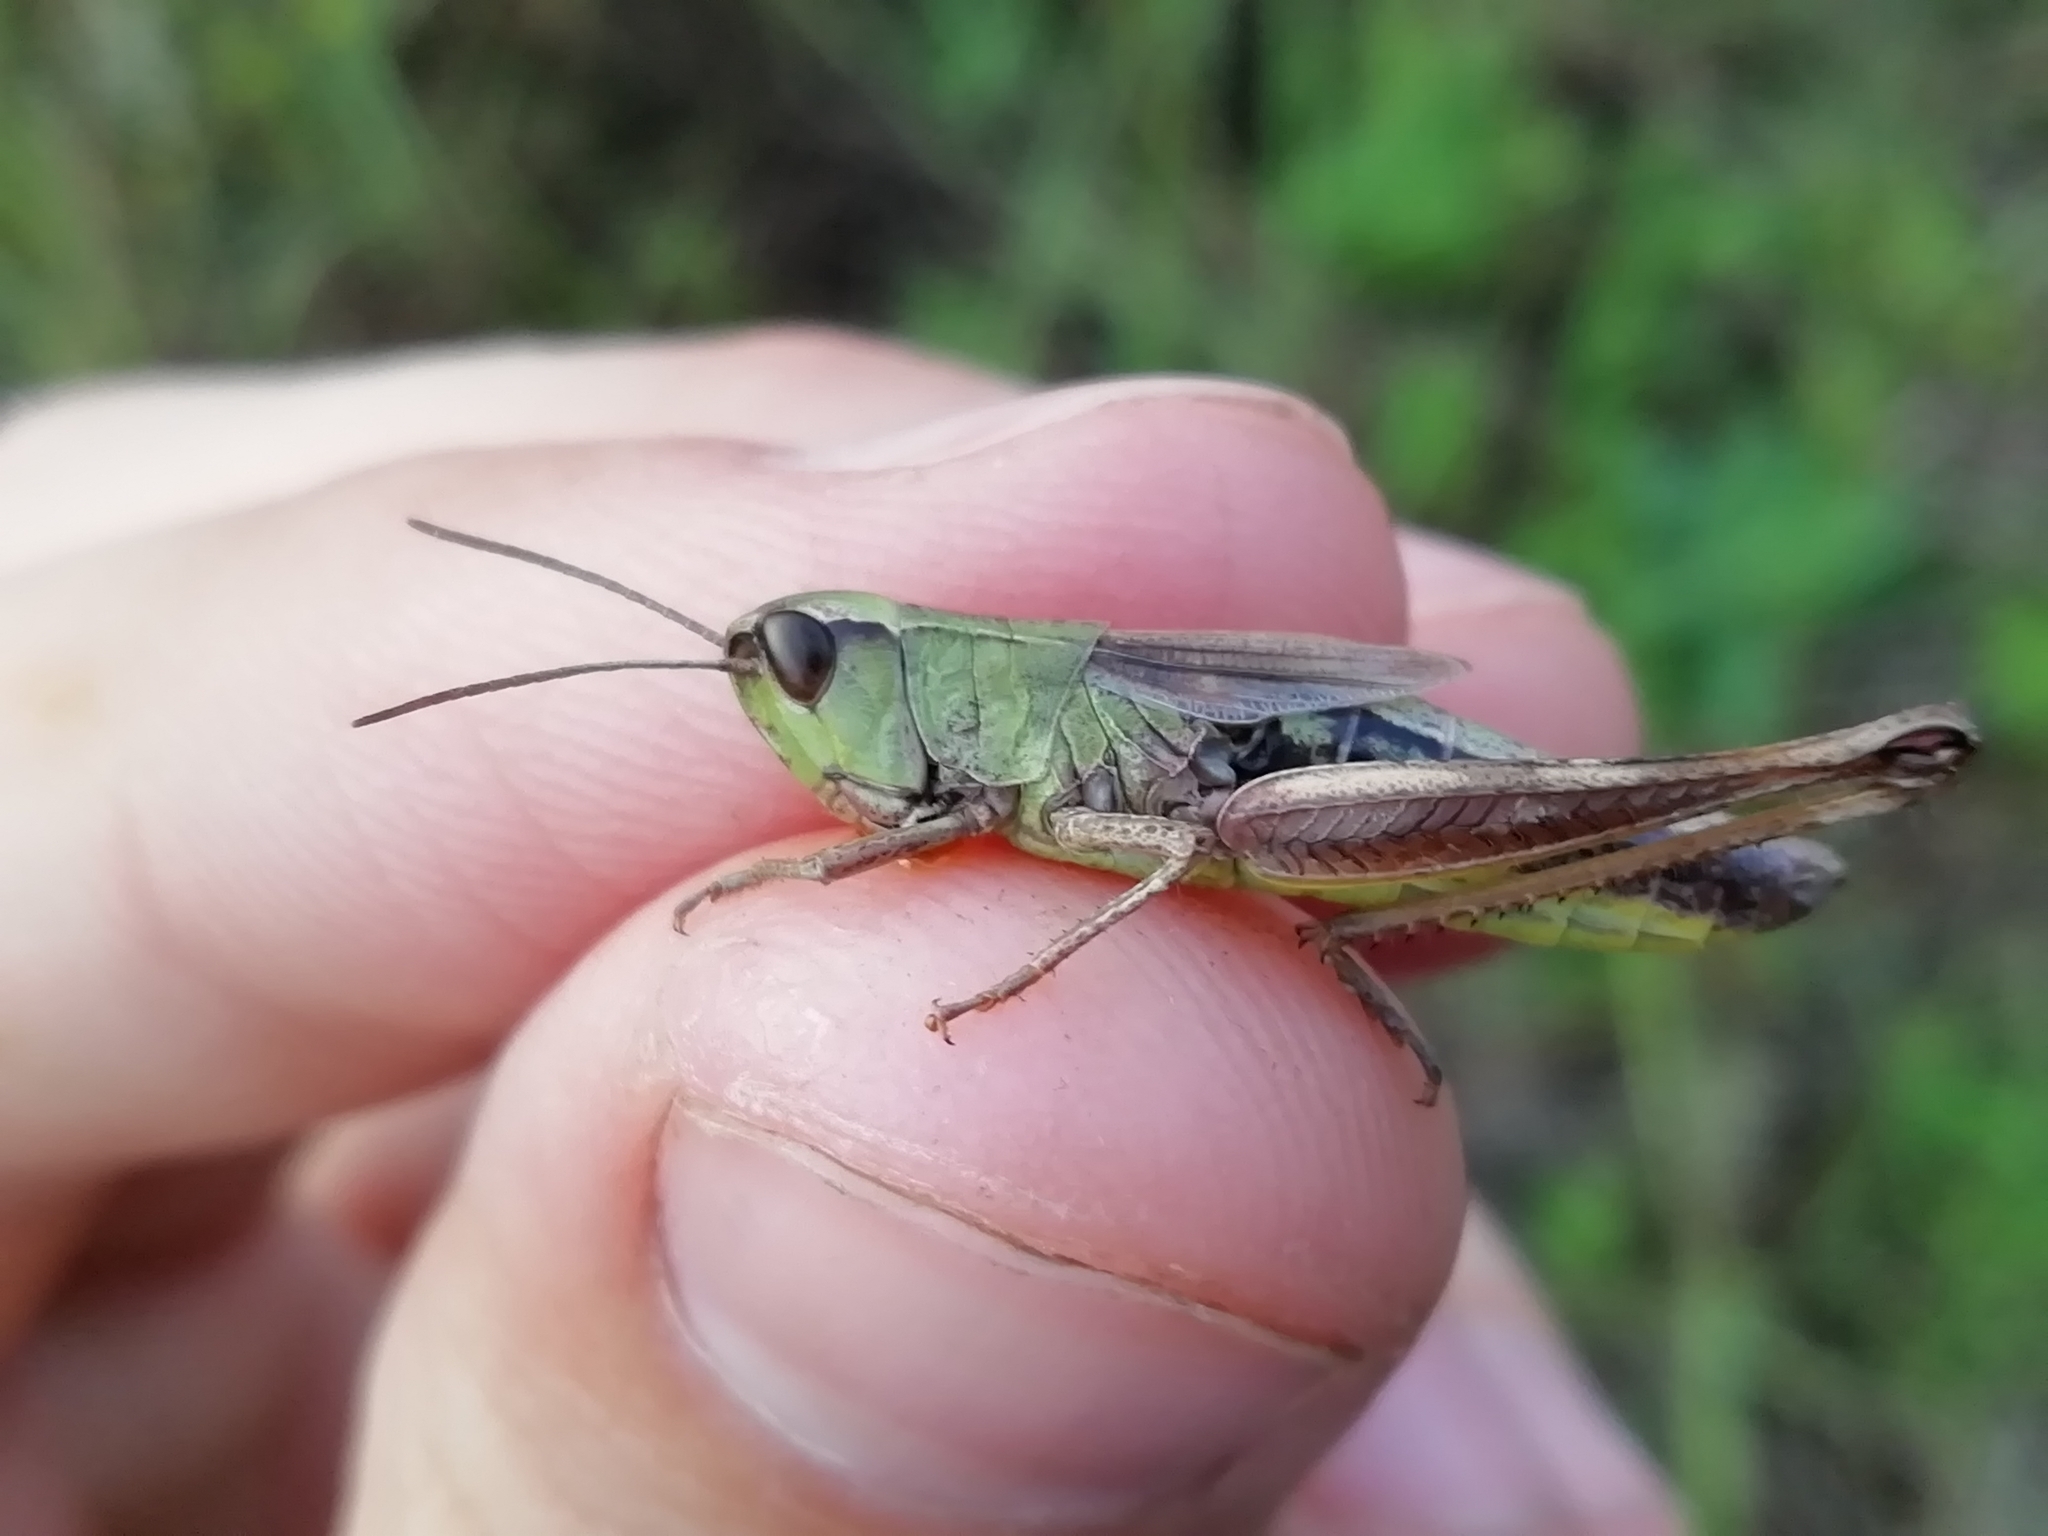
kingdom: Animalia
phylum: Arthropoda
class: Insecta
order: Orthoptera
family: Acrididae
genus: Pseudochorthippus
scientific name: Pseudochorthippus parallelus
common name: Meadow grasshopper
